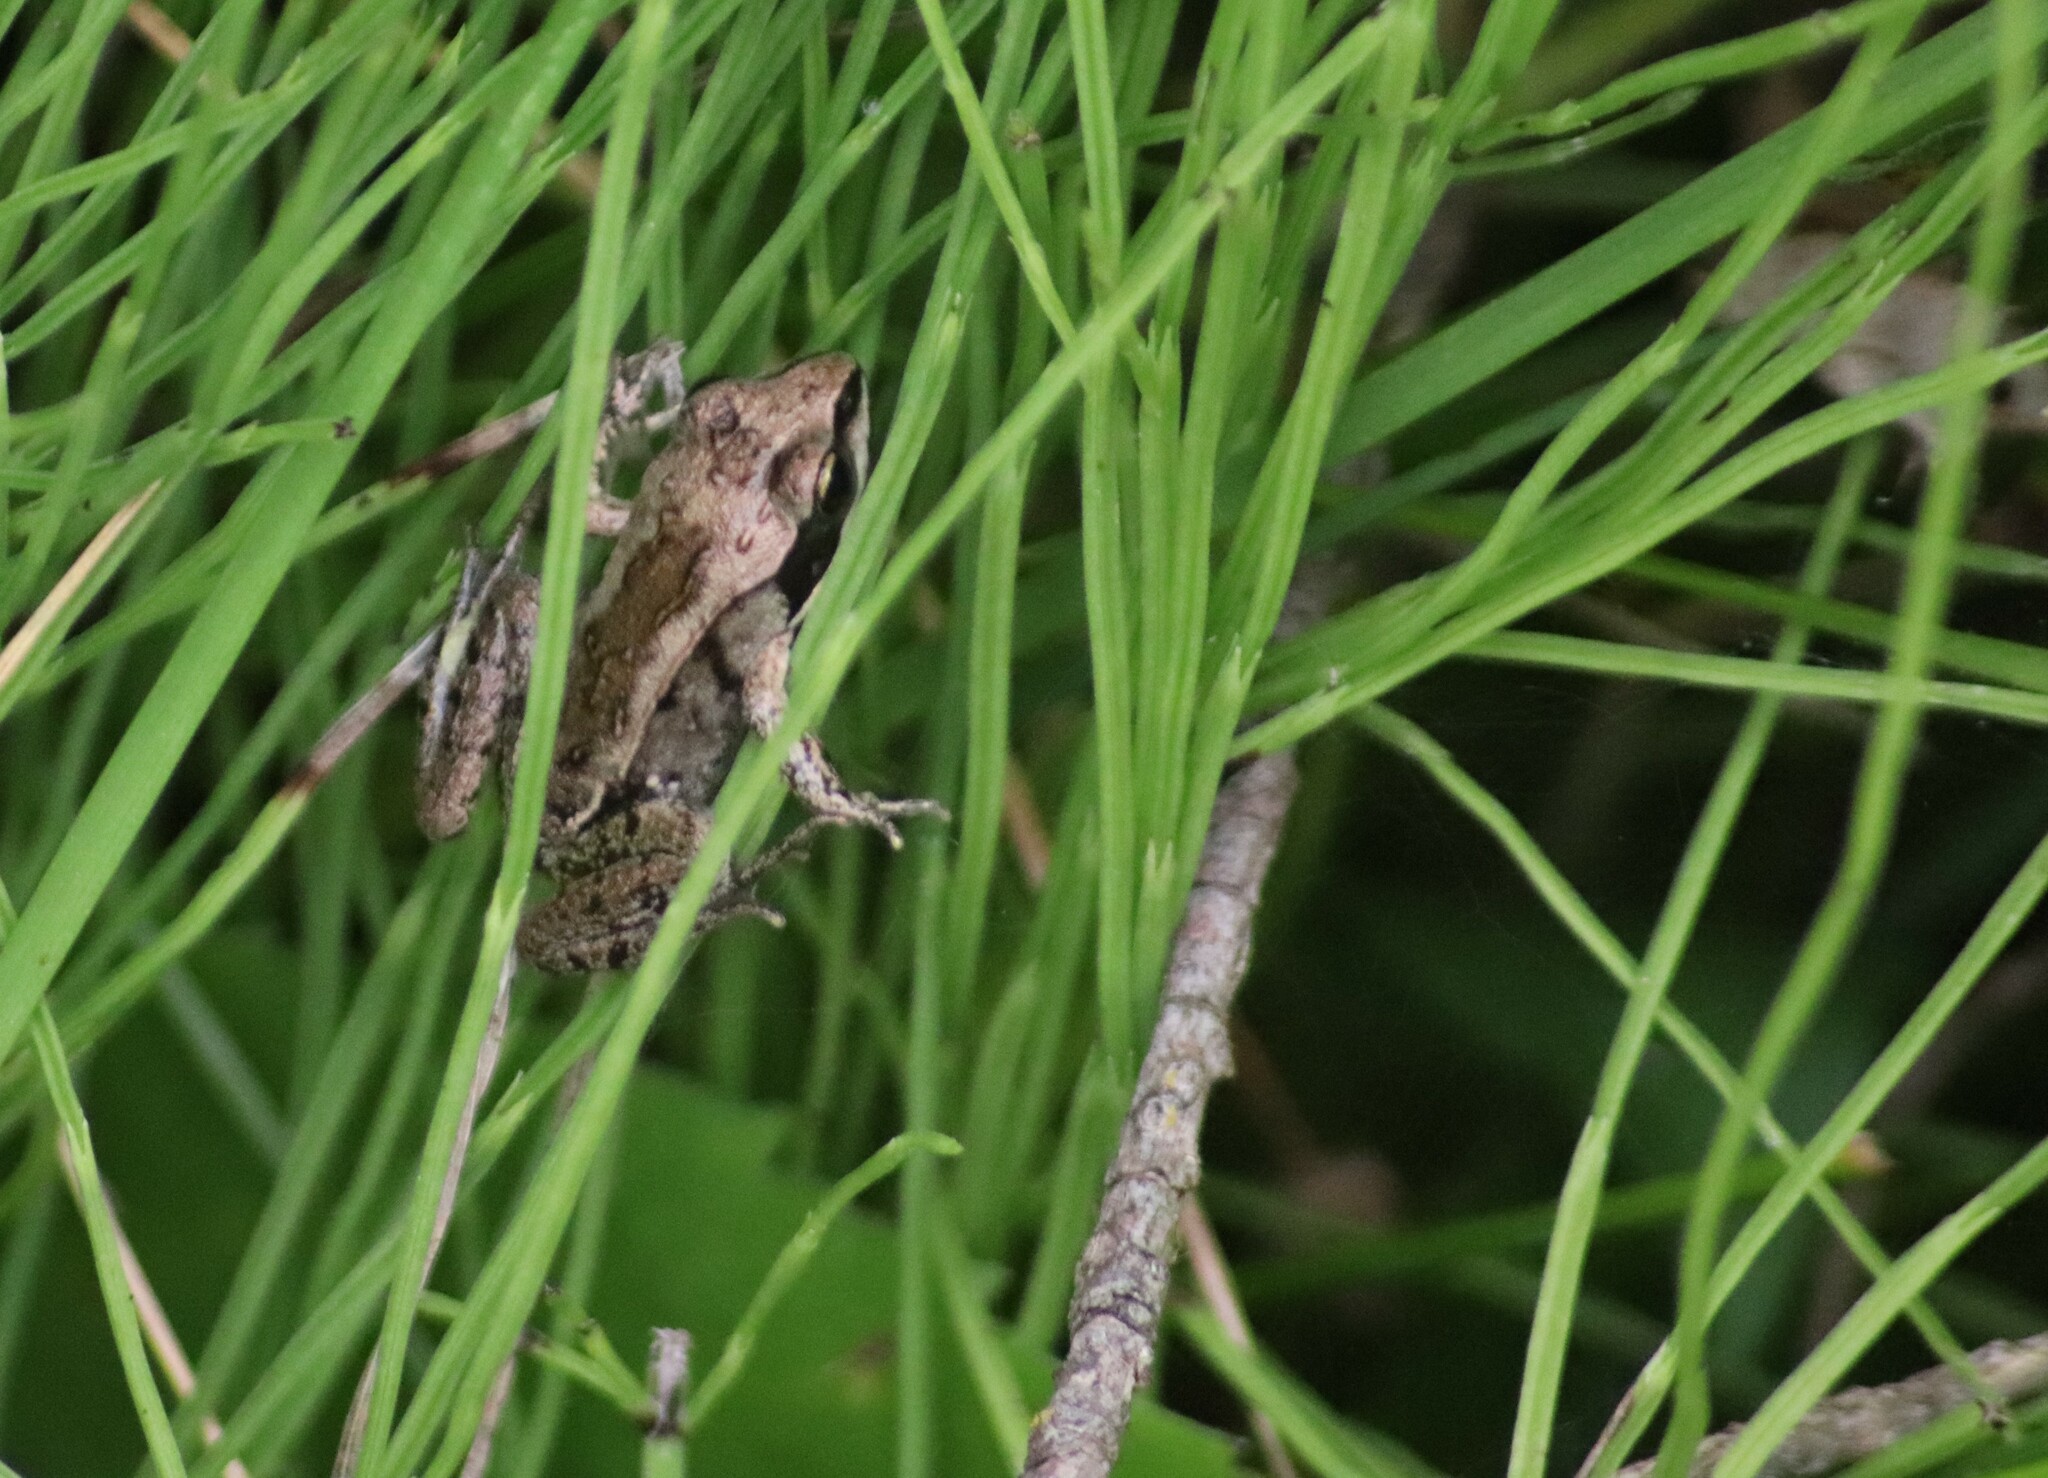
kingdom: Animalia
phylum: Chordata
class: Amphibia
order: Anura
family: Ranidae
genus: Lithobates
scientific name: Lithobates sylvaticus
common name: Wood frog
